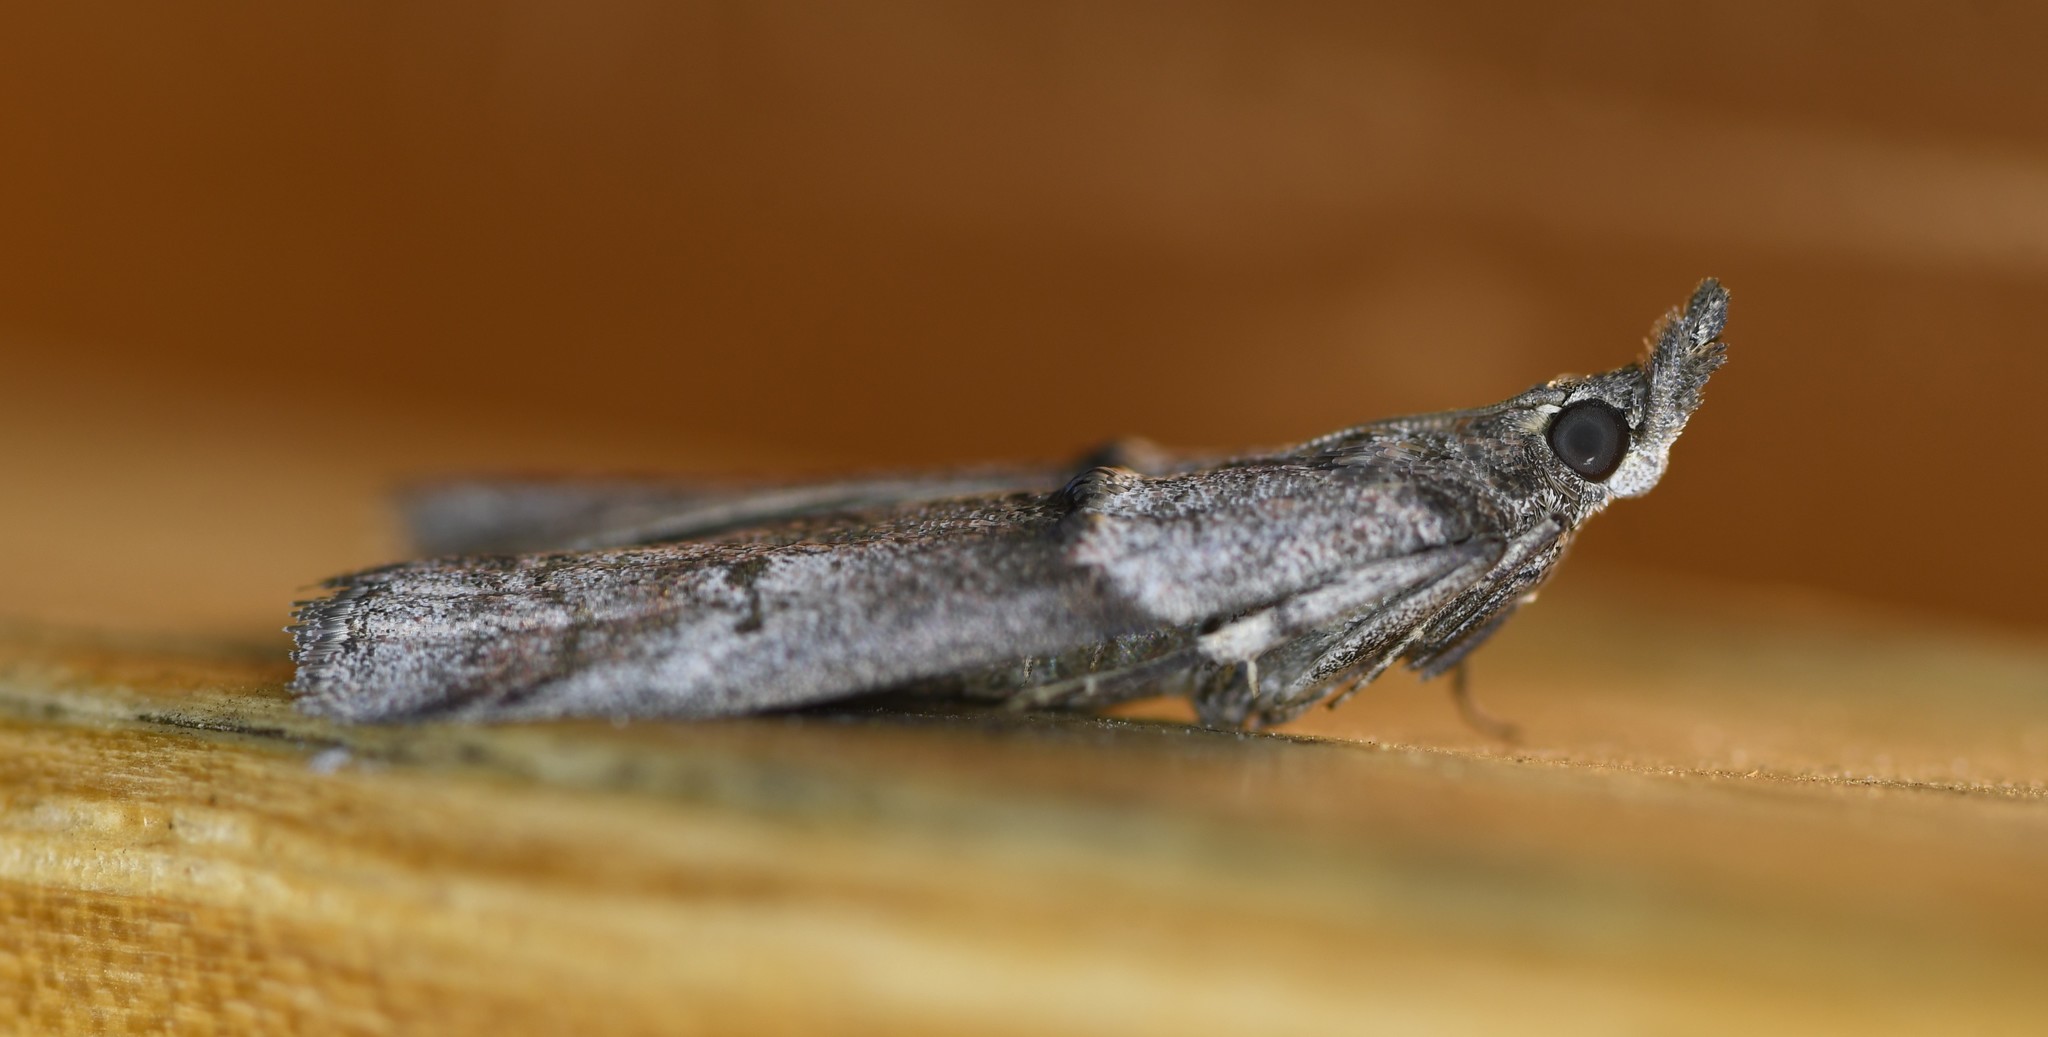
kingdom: Animalia
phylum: Arthropoda
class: Insecta
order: Lepidoptera
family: Pyralidae
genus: Acrobasis
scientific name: Acrobasis obliqua
